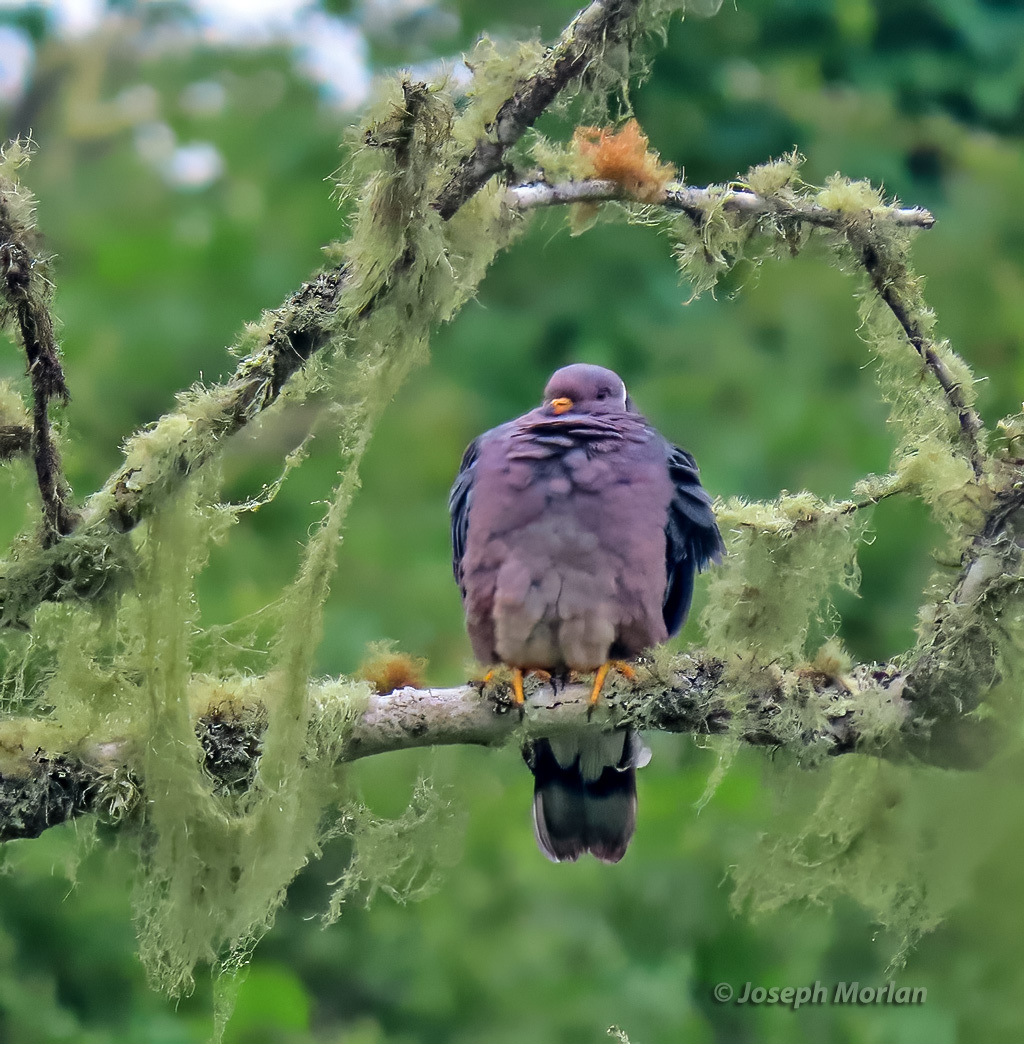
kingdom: Animalia
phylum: Chordata
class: Aves
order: Columbiformes
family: Columbidae
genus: Patagioenas
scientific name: Patagioenas fasciata
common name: Band-tailed pigeon
